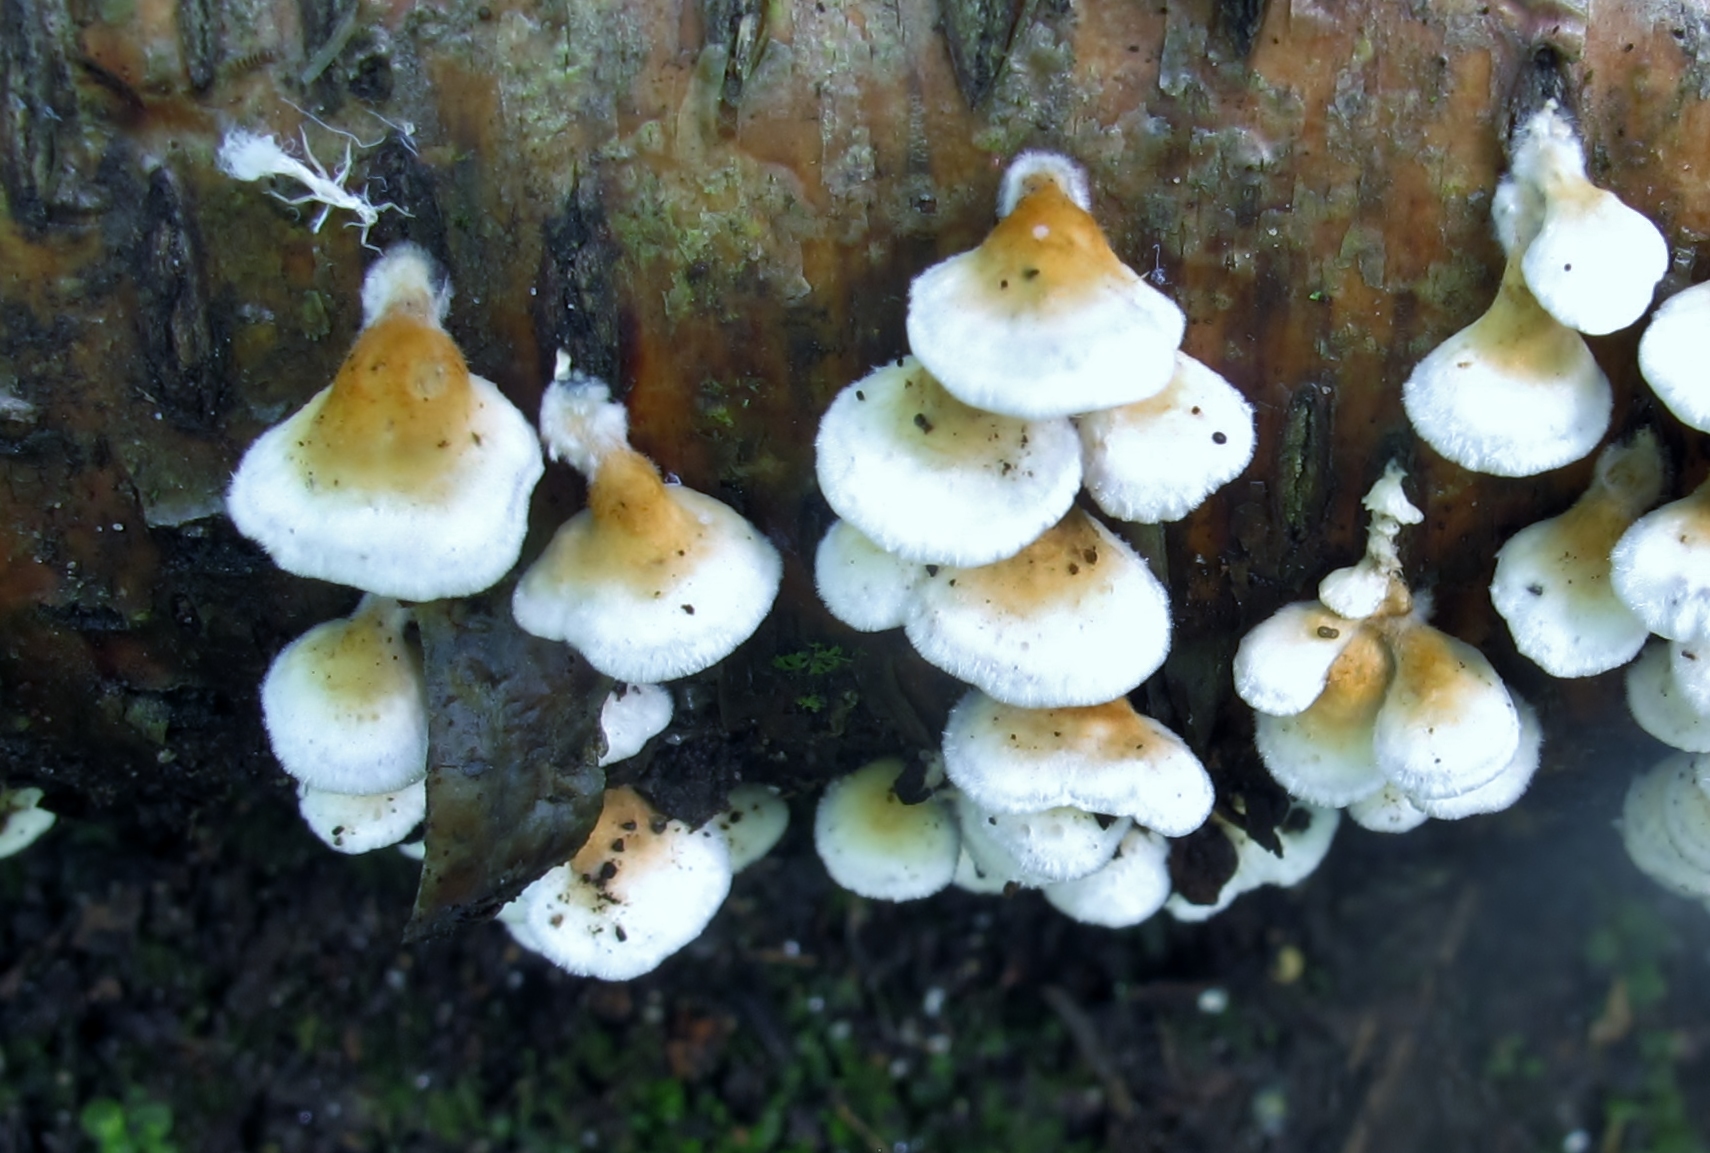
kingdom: Fungi
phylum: Basidiomycota
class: Agaricomycetes
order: Amylocorticiales
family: Amylocorticiaceae
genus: Plicaturopsis
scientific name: Plicaturopsis crispa
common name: Crimped gill
